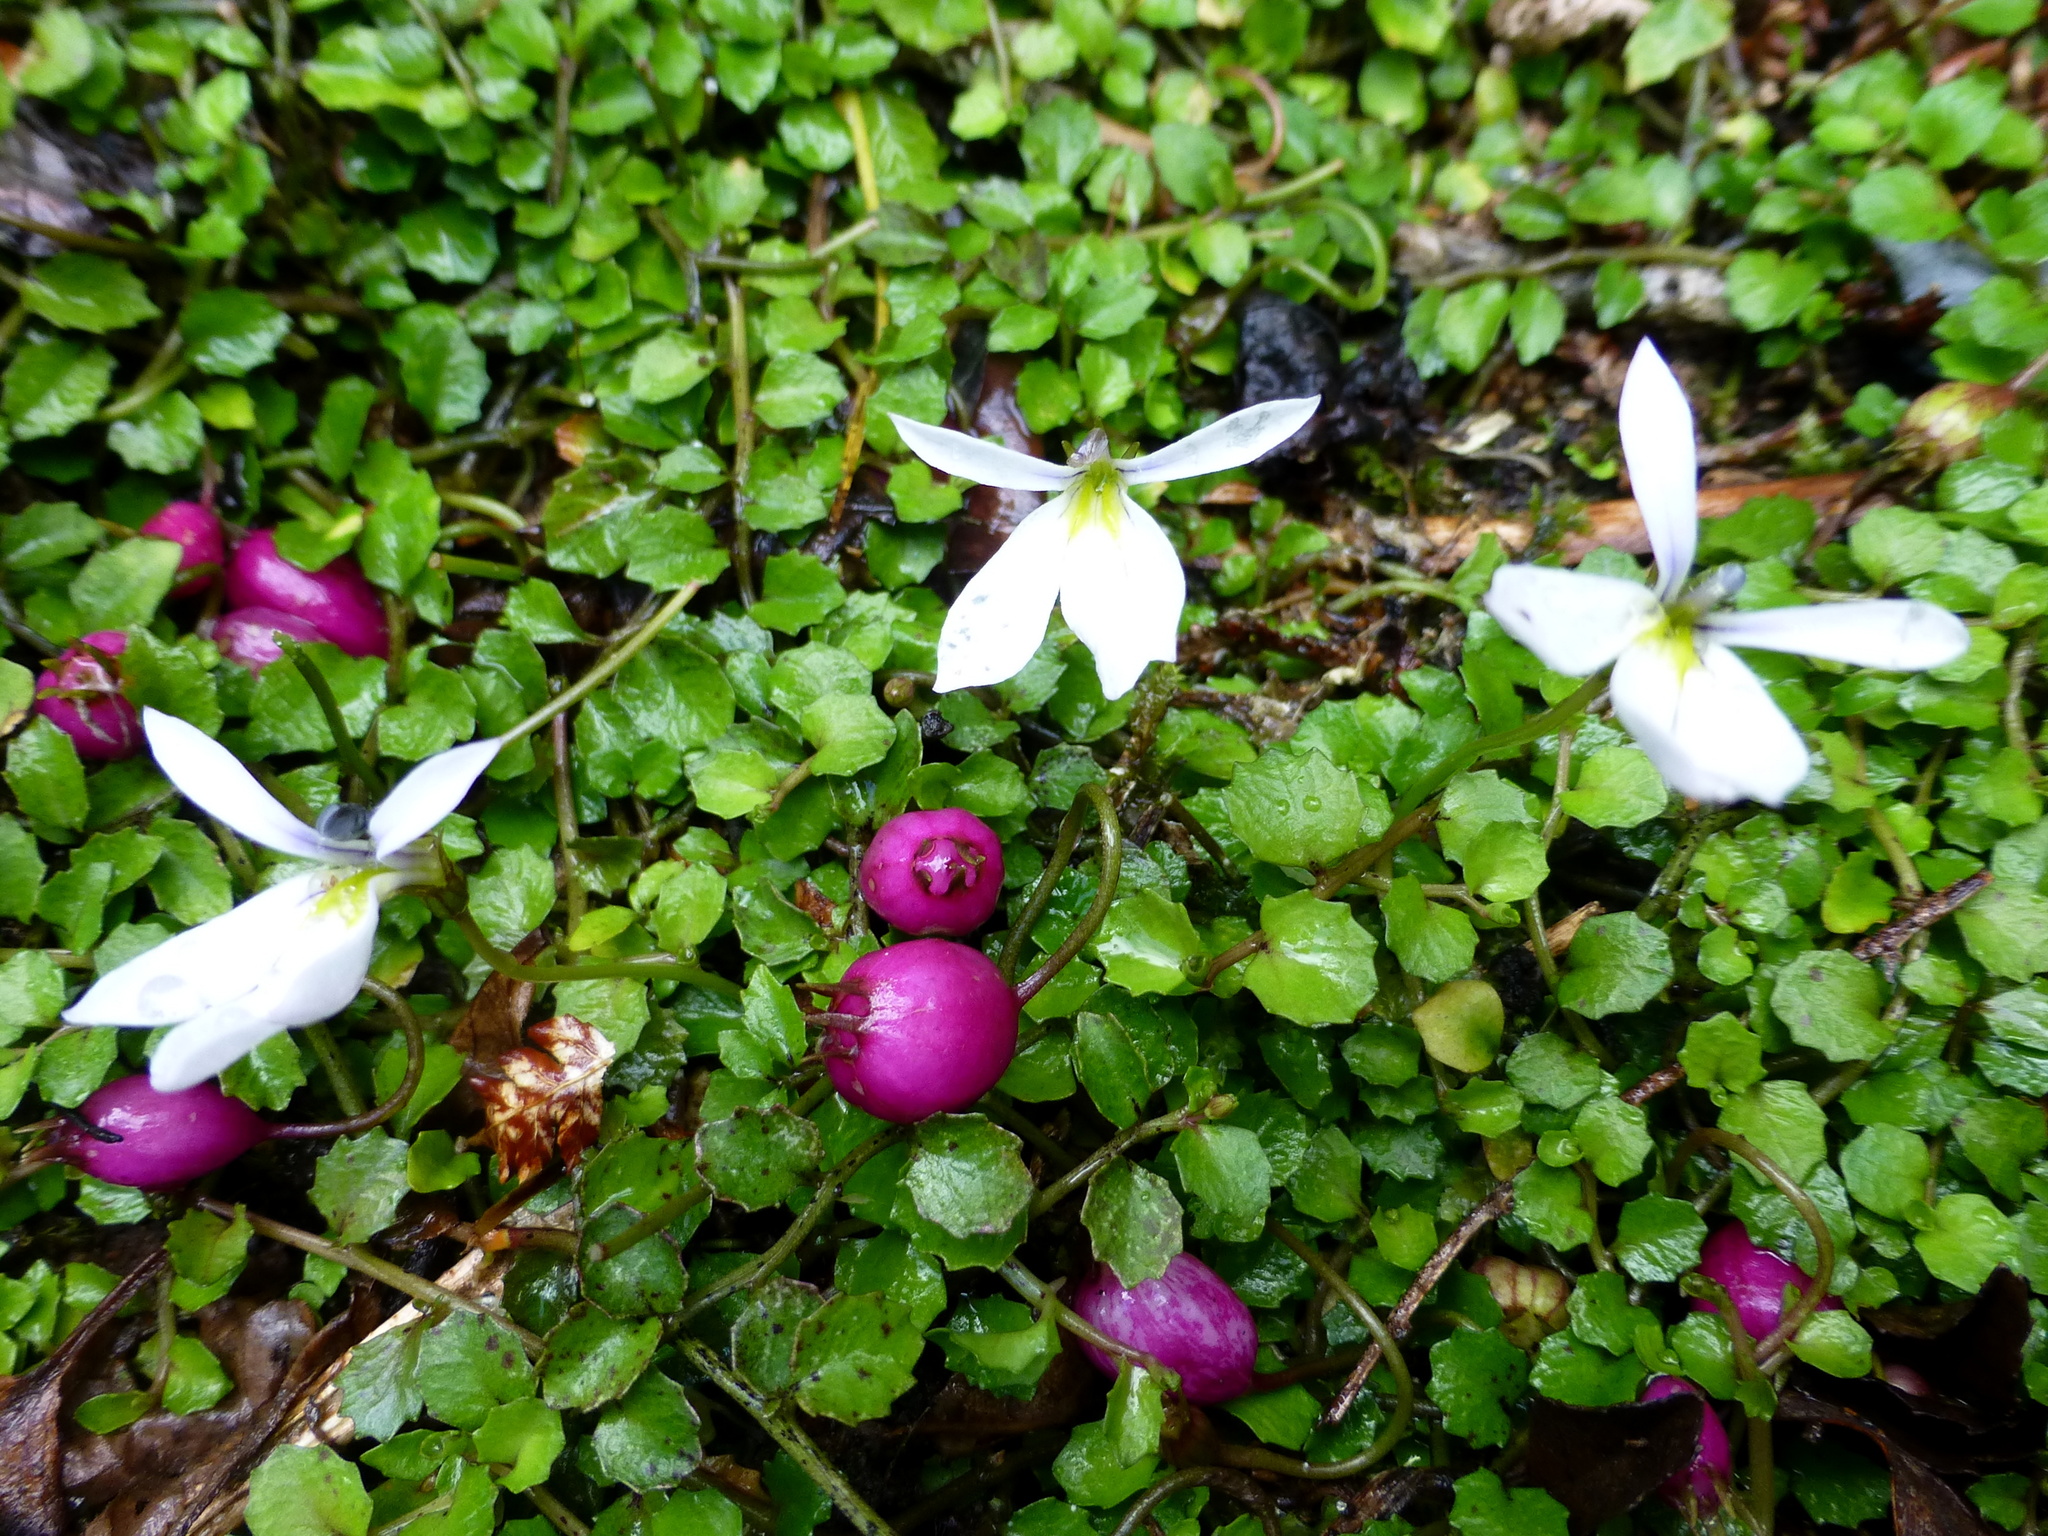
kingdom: Plantae
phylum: Tracheophyta
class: Magnoliopsida
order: Asterales
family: Campanulaceae
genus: Lobelia
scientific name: Lobelia angulata
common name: Lawn lobelia
